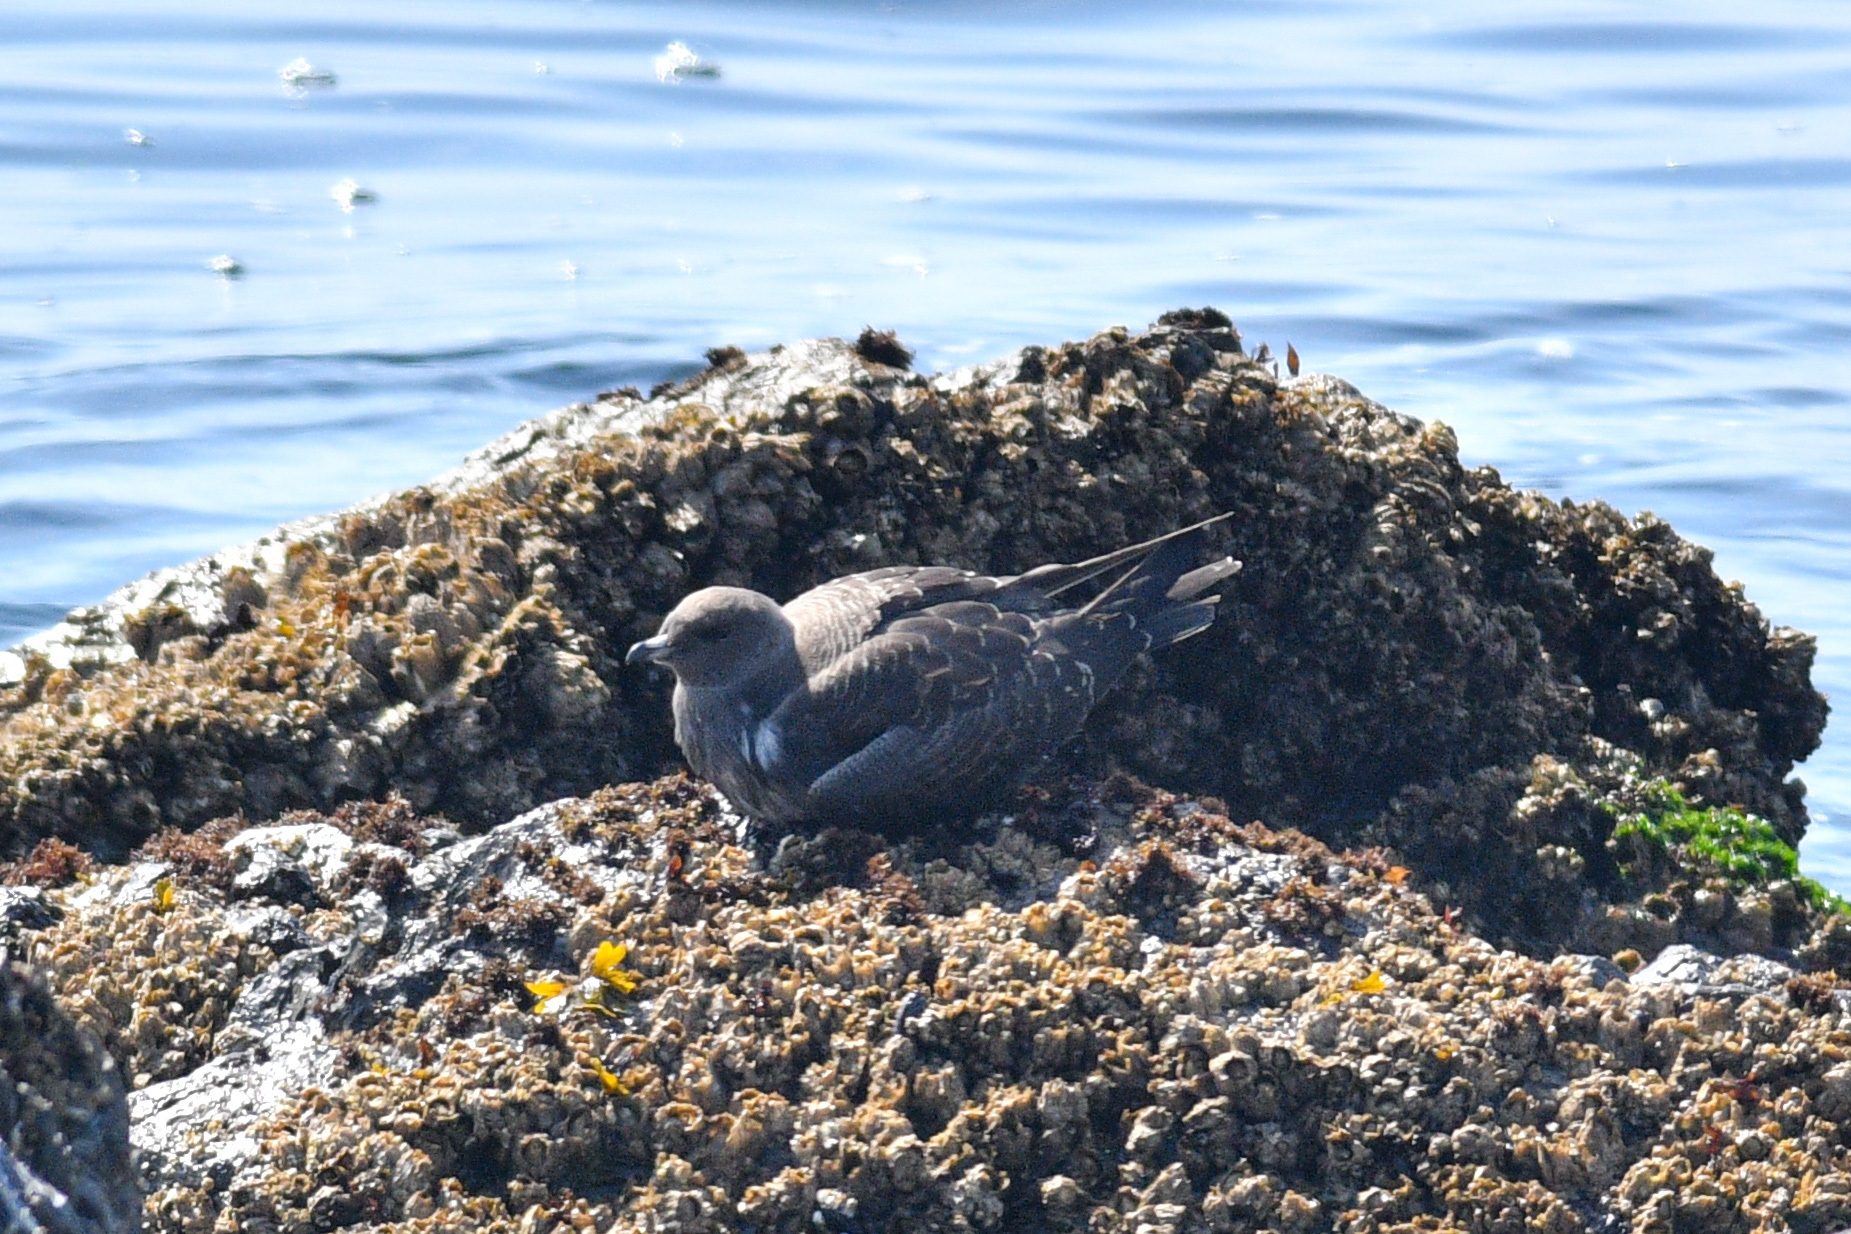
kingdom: Animalia
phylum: Chordata
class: Aves
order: Charadriiformes
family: Stercorariidae
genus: Stercorarius
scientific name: Stercorarius longicaudus
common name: Long-tailed jaeger
